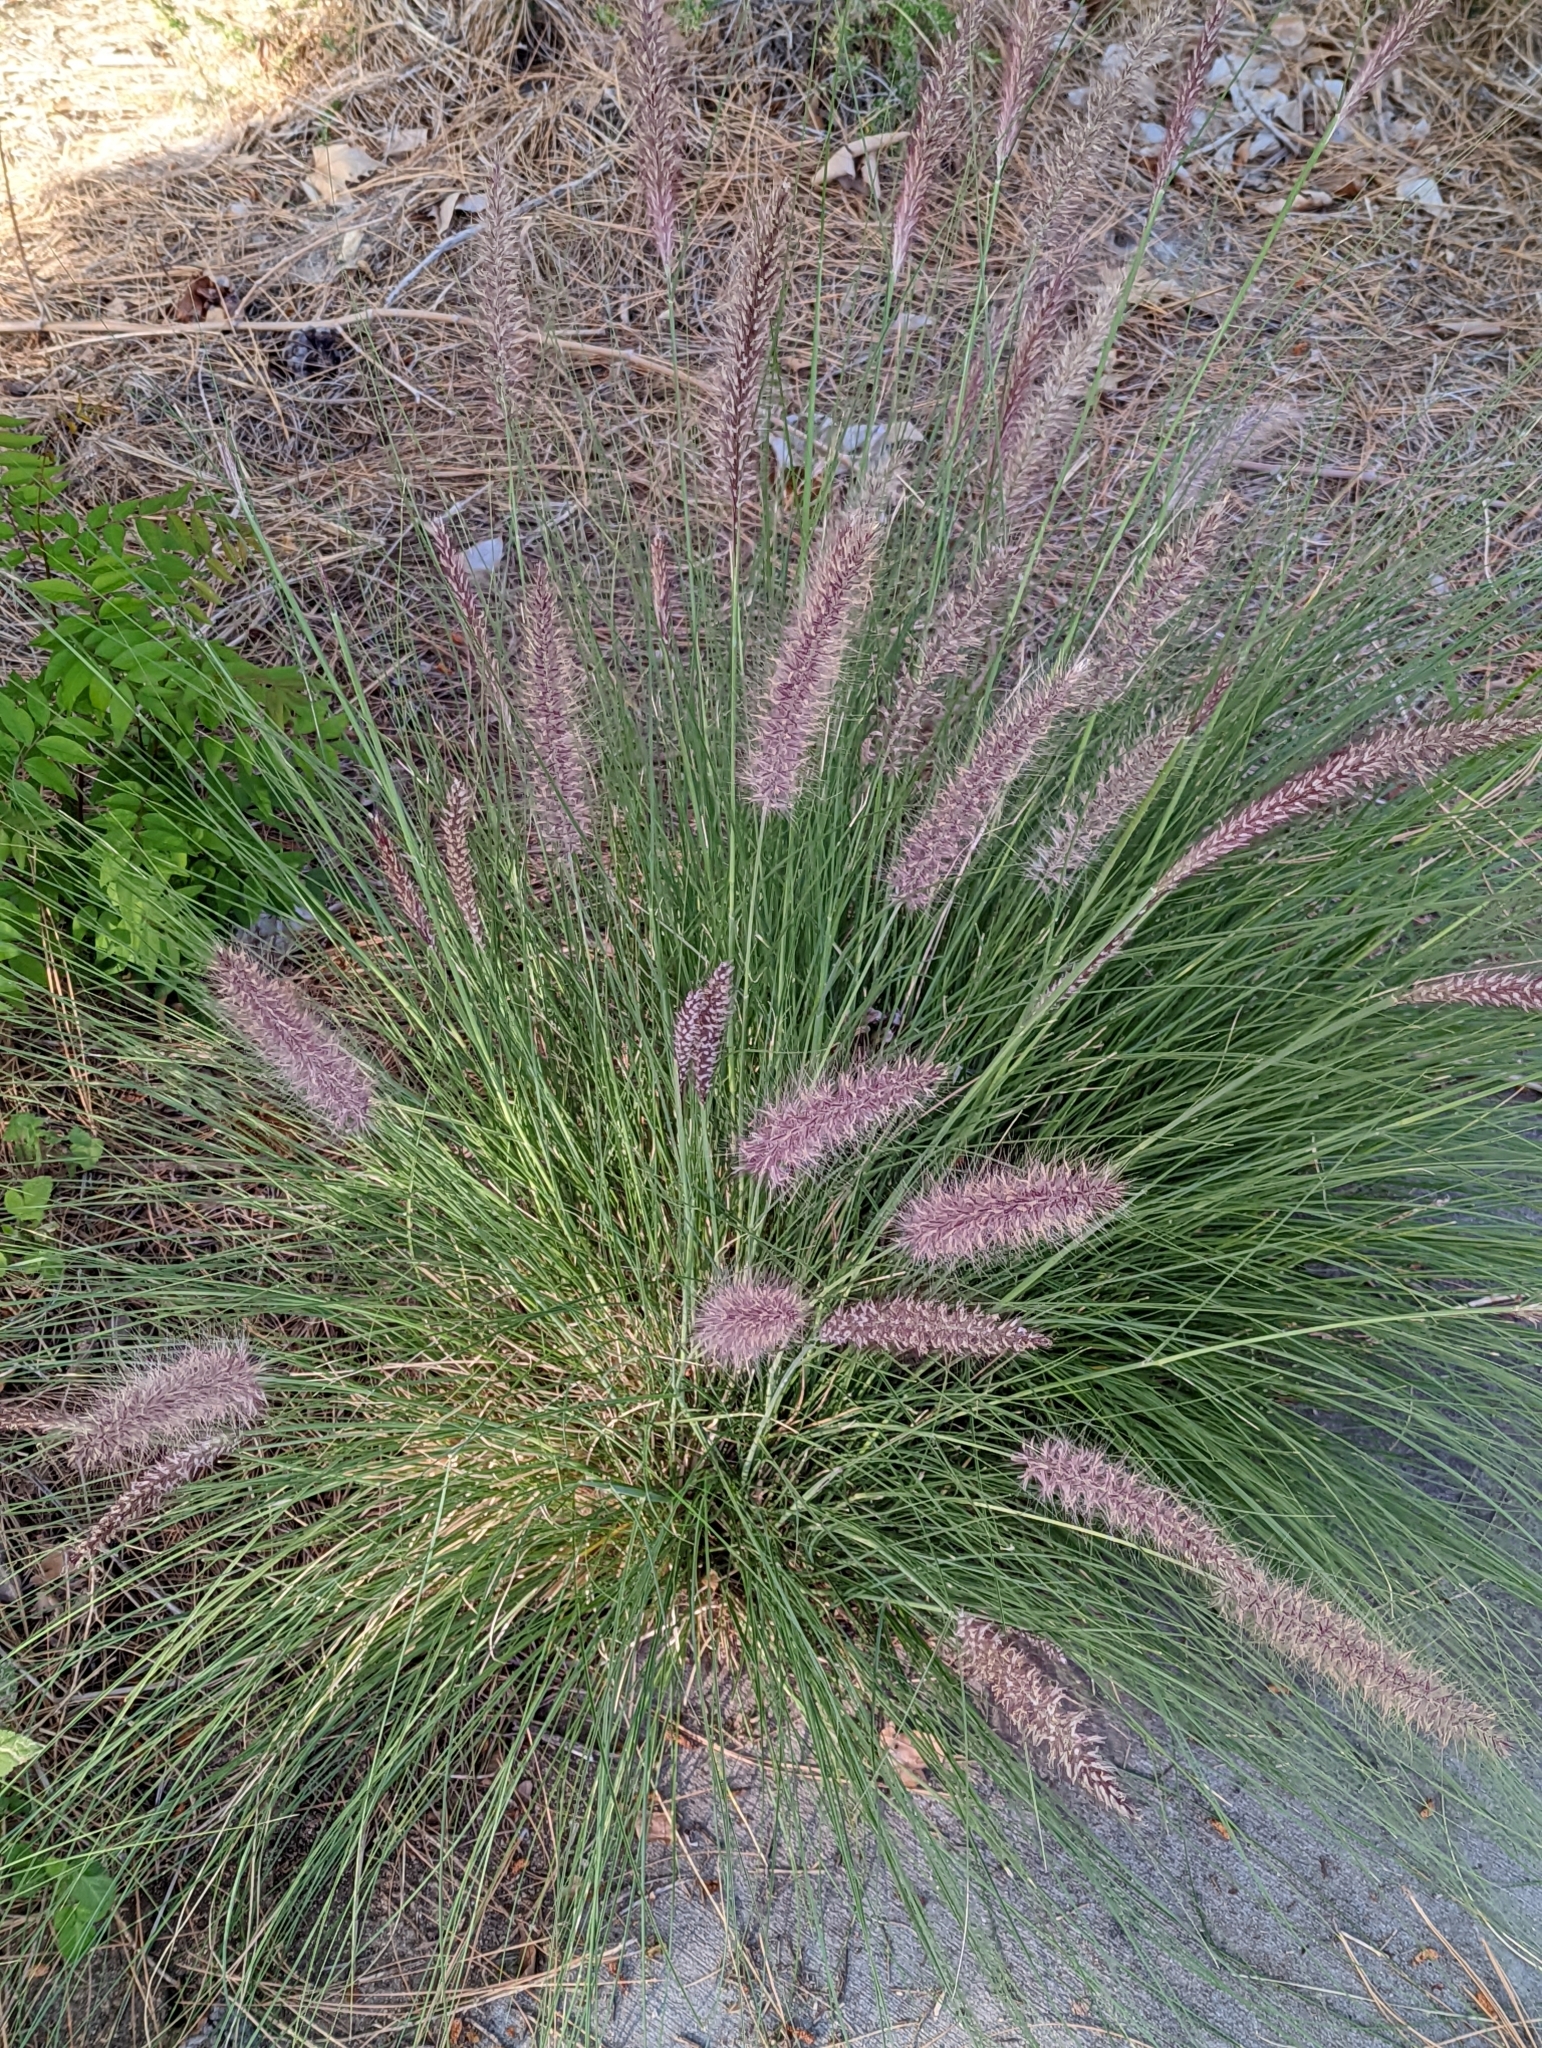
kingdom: Plantae
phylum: Tracheophyta
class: Liliopsida
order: Poales
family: Poaceae
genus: Cenchrus
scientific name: Cenchrus setaceus
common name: Crimson fountaingrass
